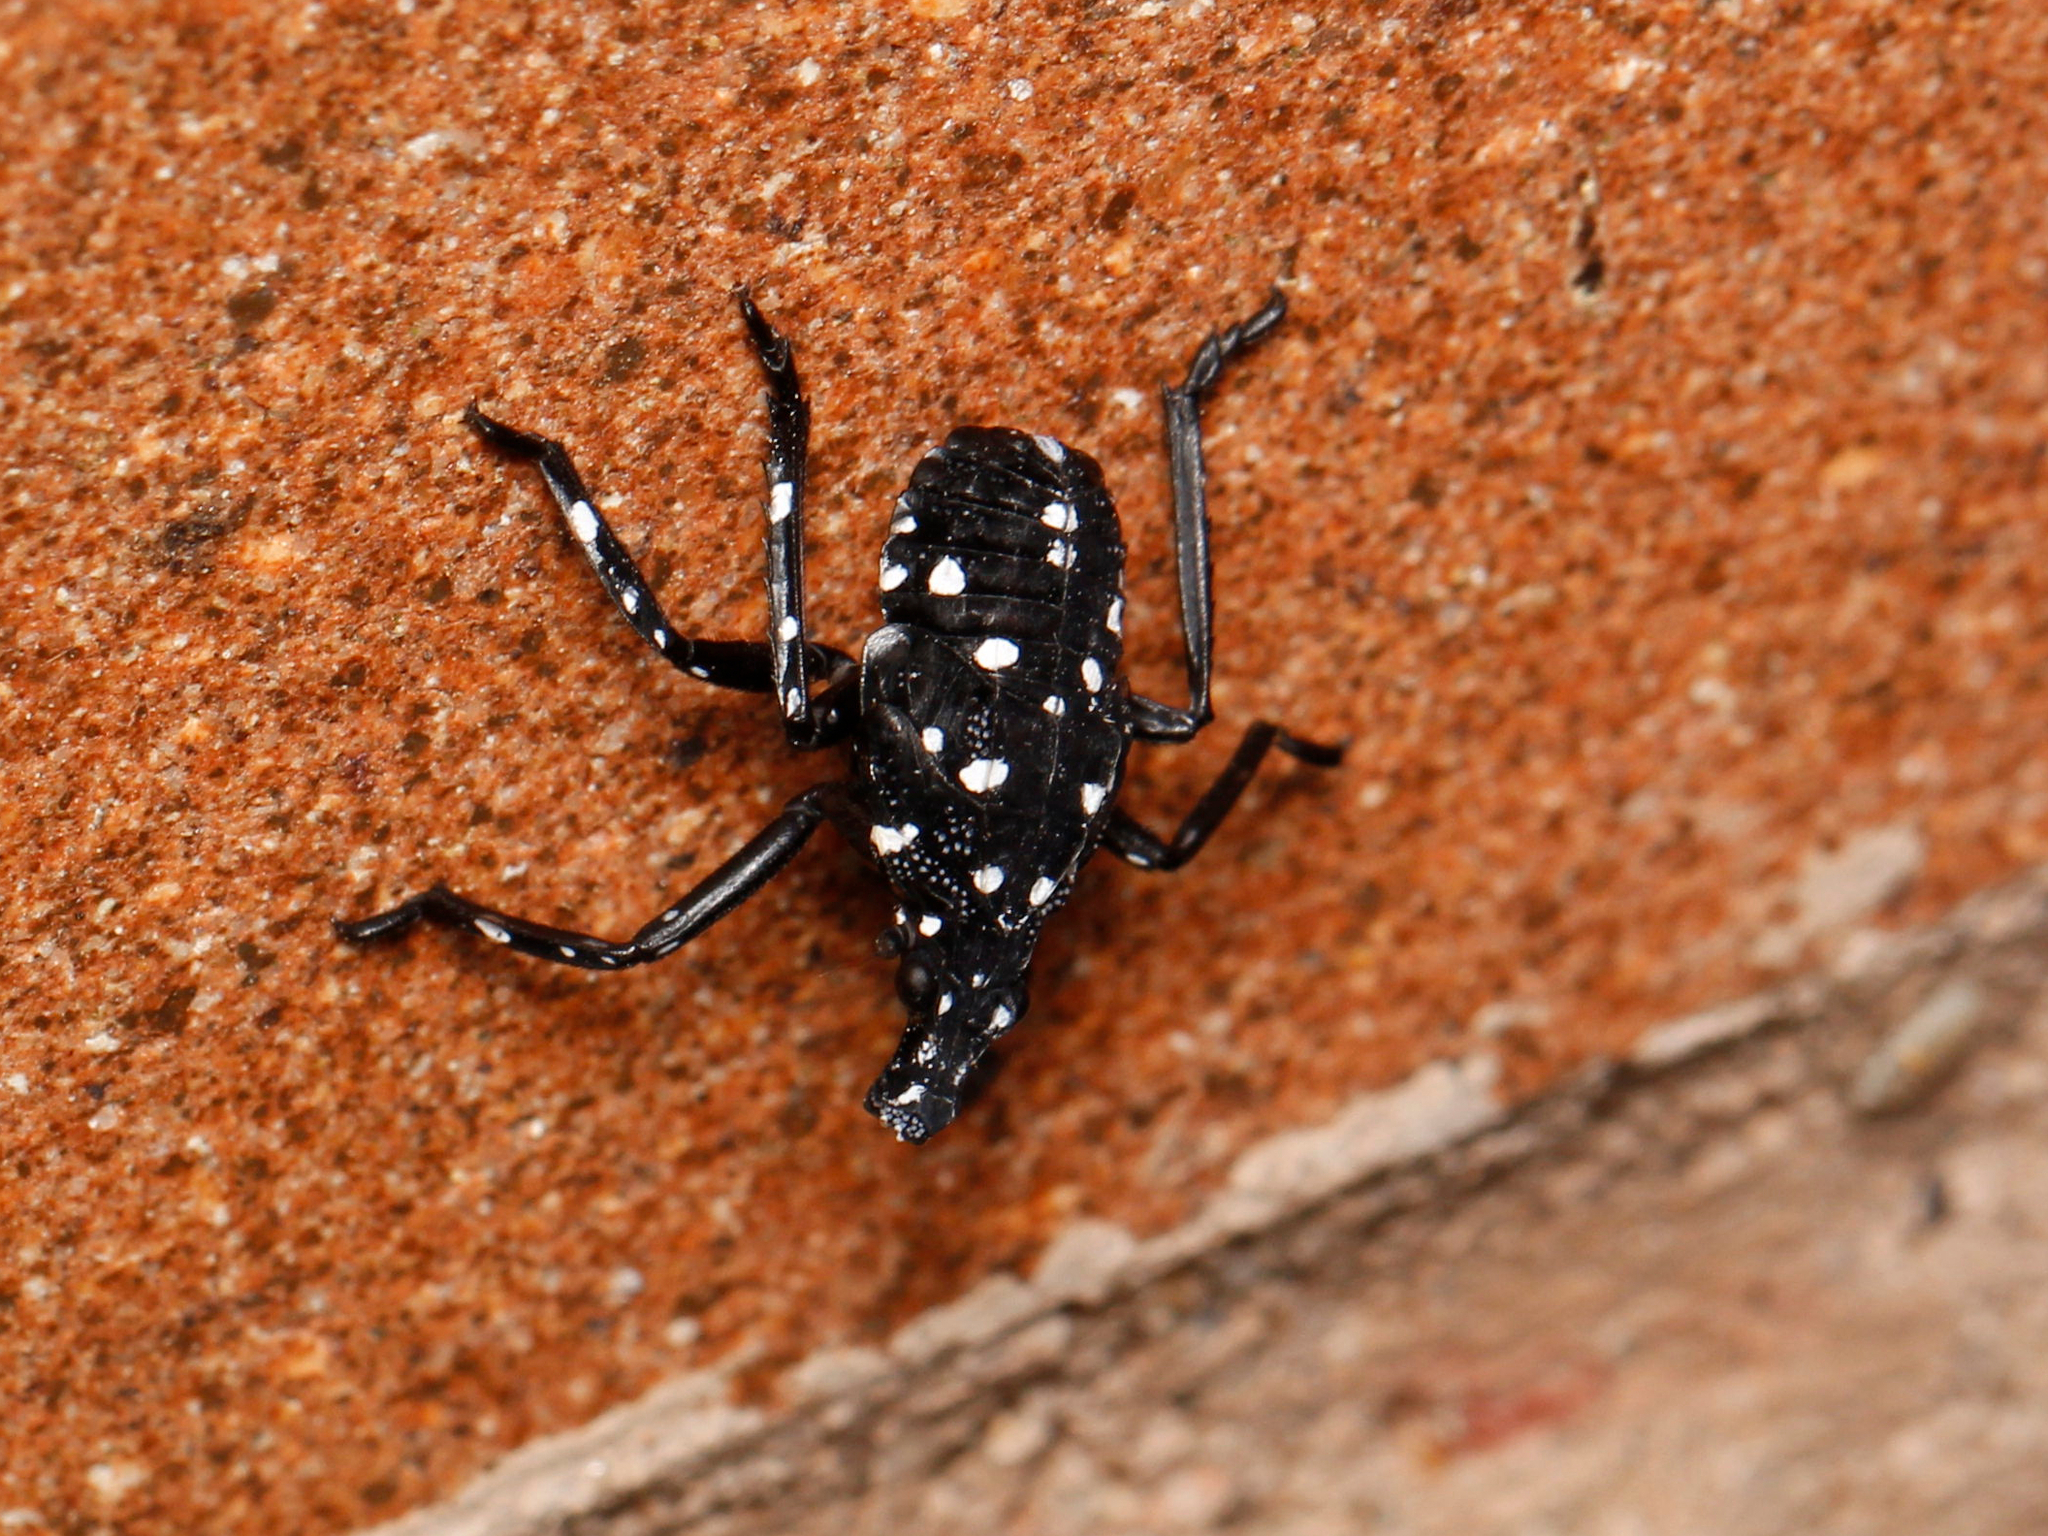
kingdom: Animalia
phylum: Arthropoda
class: Insecta
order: Hemiptera
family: Fulgoridae
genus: Lycorma
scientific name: Lycorma delicatula
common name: Spotted lanternfly
